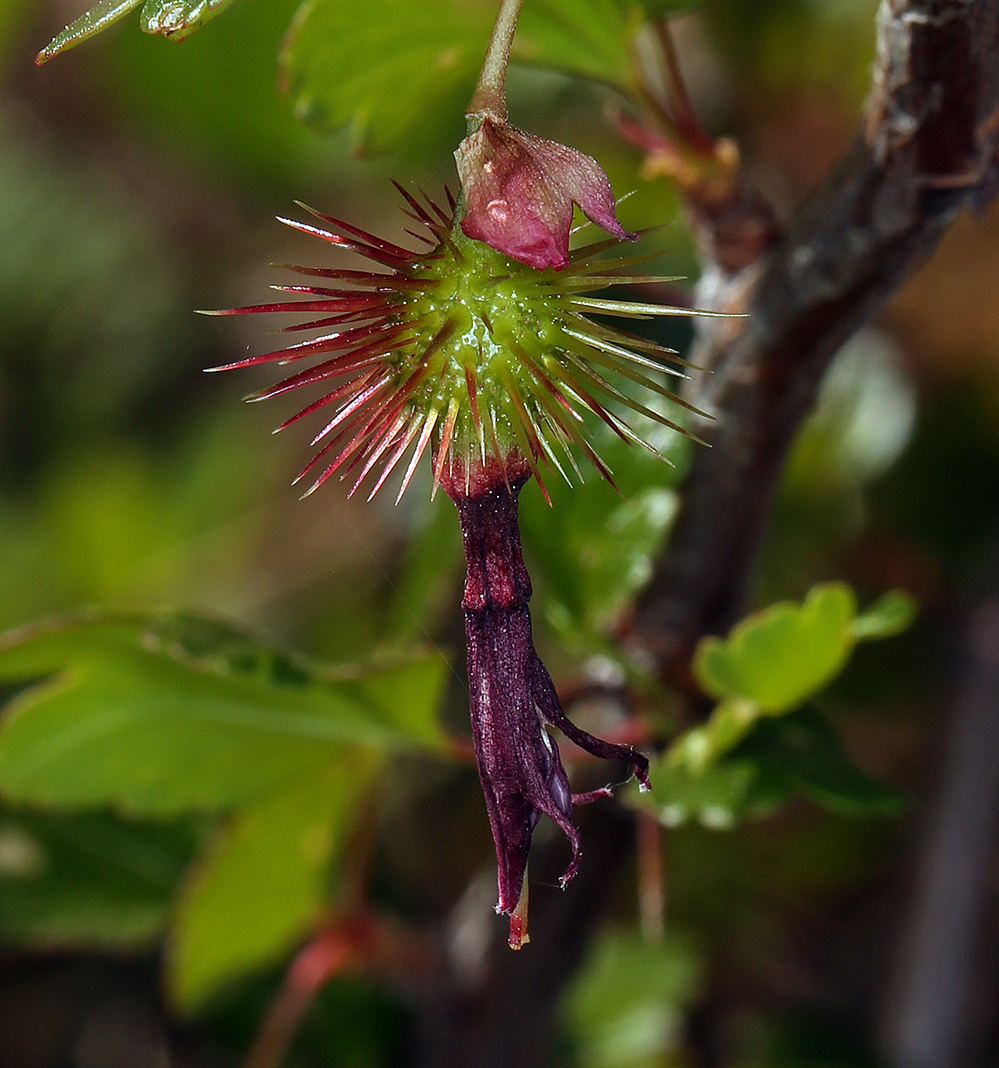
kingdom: Plantae
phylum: Tracheophyta
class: Magnoliopsida
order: Saxifragales
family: Grossulariaceae
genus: Ribes
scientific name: Ribes cruentum
